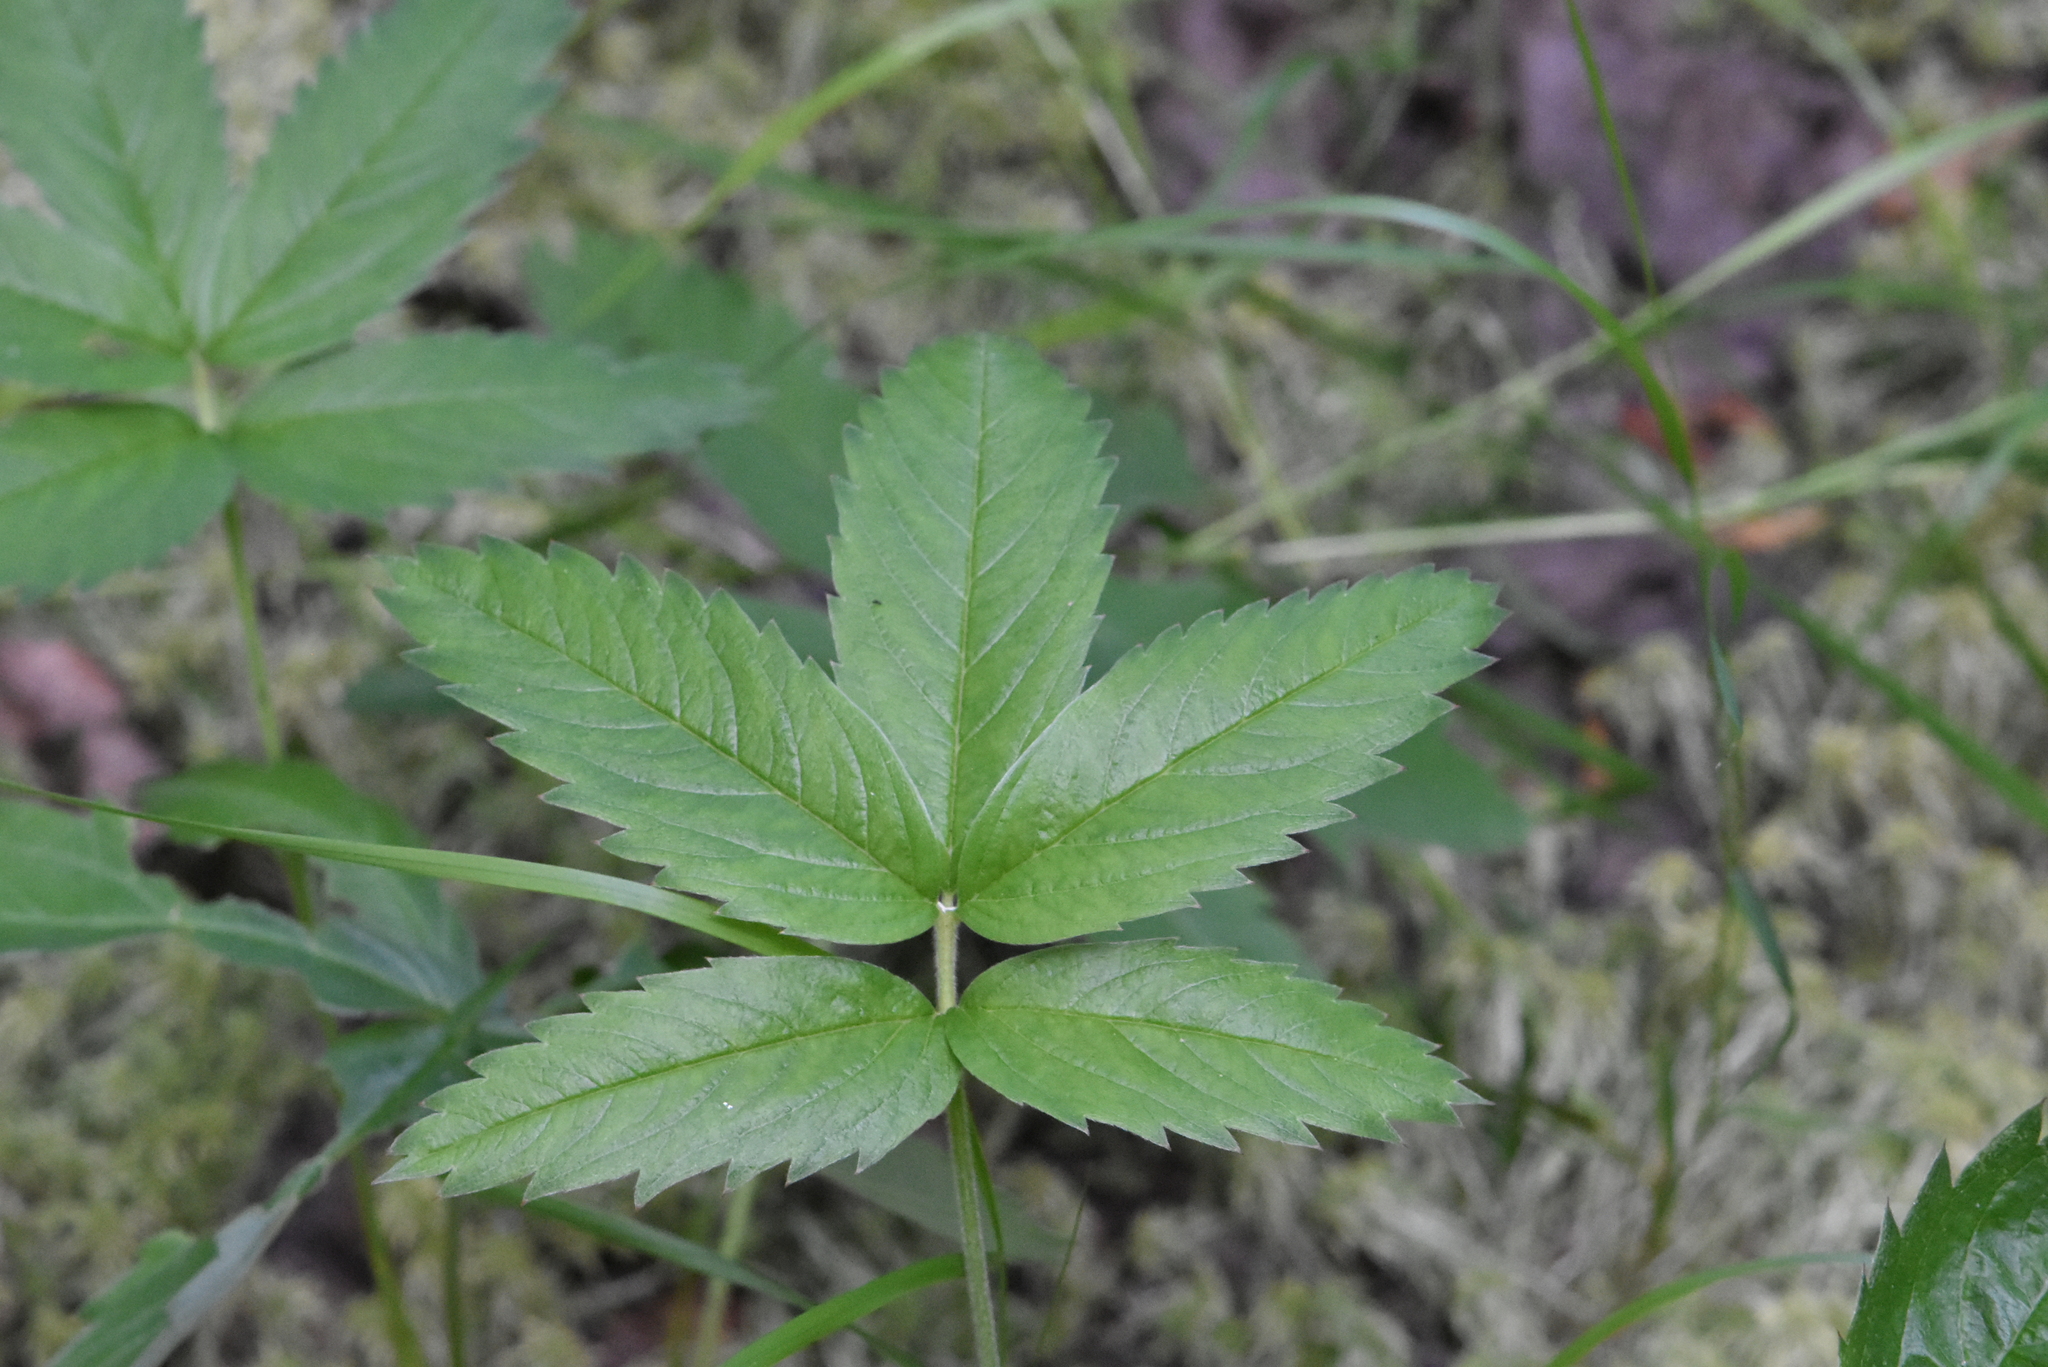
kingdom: Plantae
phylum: Tracheophyta
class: Magnoliopsida
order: Rosales
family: Rosaceae
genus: Comarum
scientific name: Comarum palustre
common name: Marsh cinquefoil
